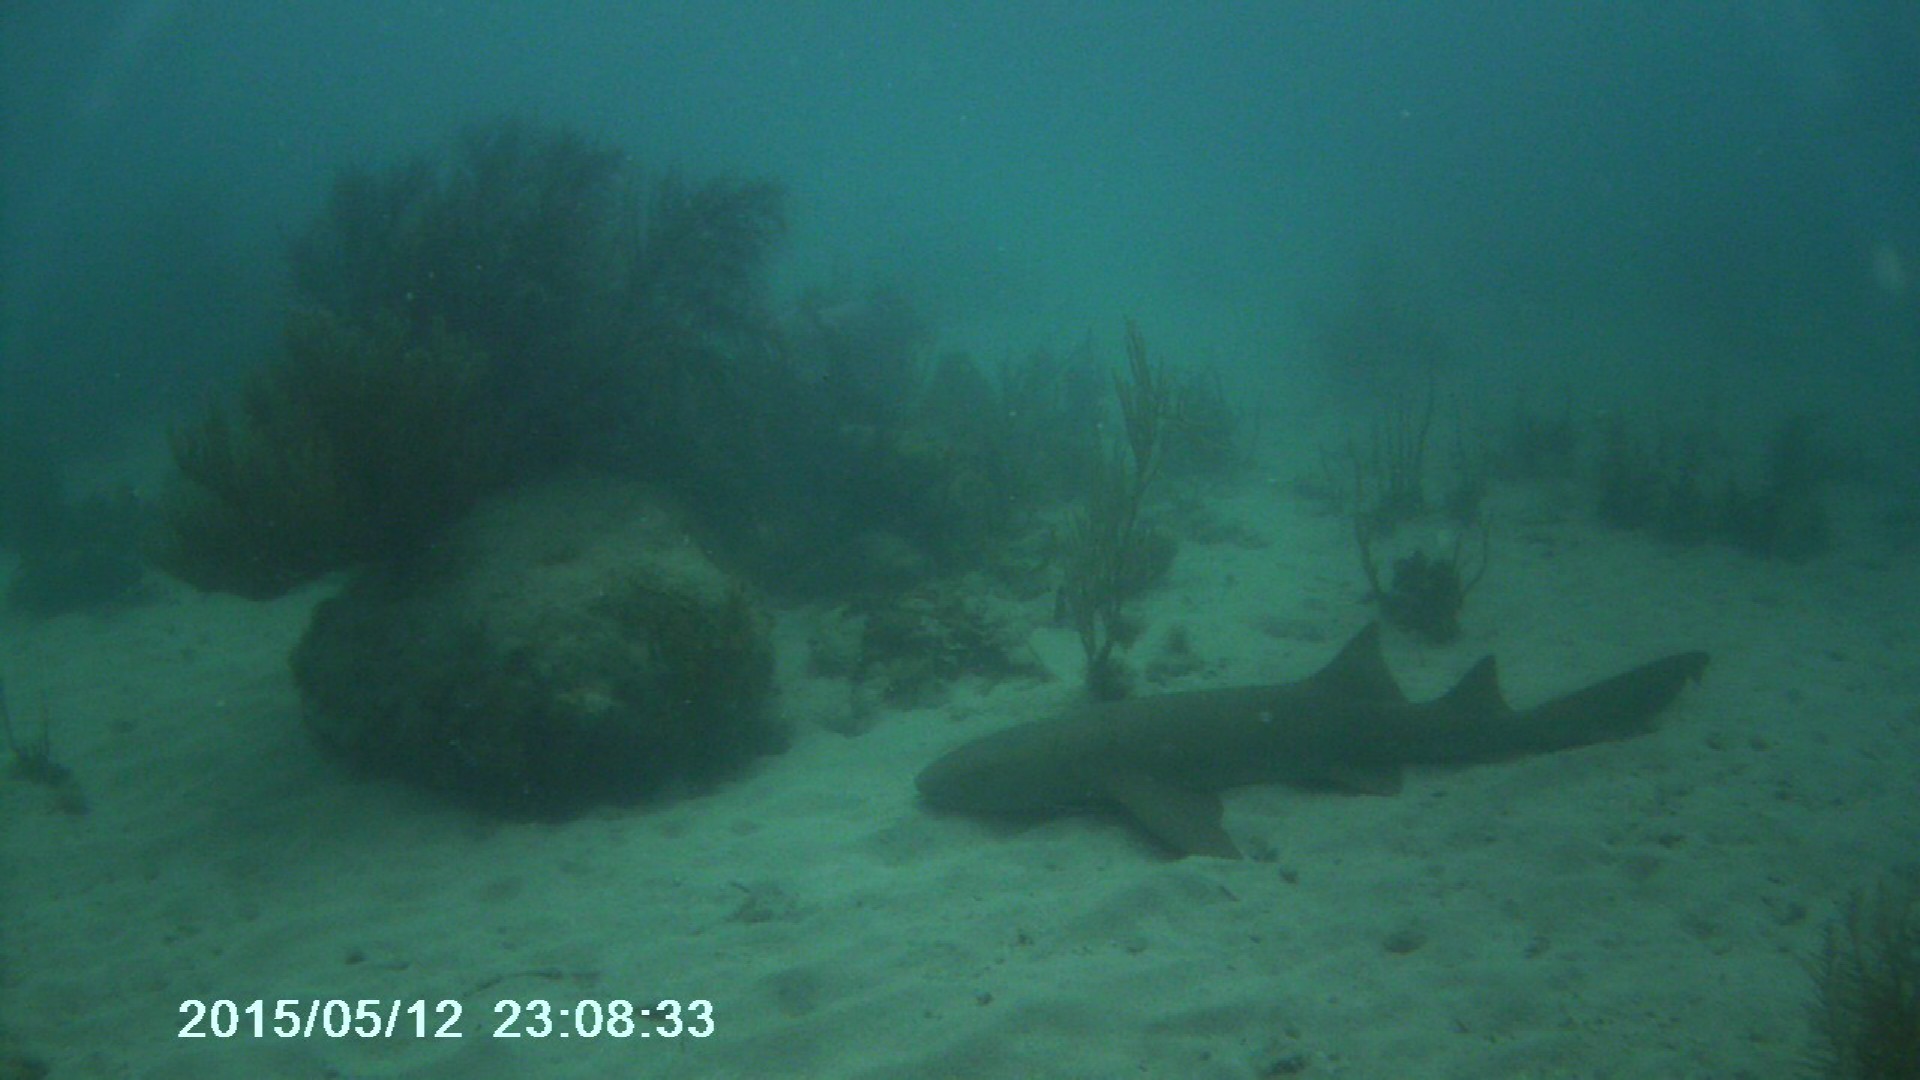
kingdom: Animalia
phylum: Chordata
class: Elasmobranchii
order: Orectolobiformes
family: Ginglymostomatidae
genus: Ginglymostoma
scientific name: Ginglymostoma cirratum
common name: Nurse shark
